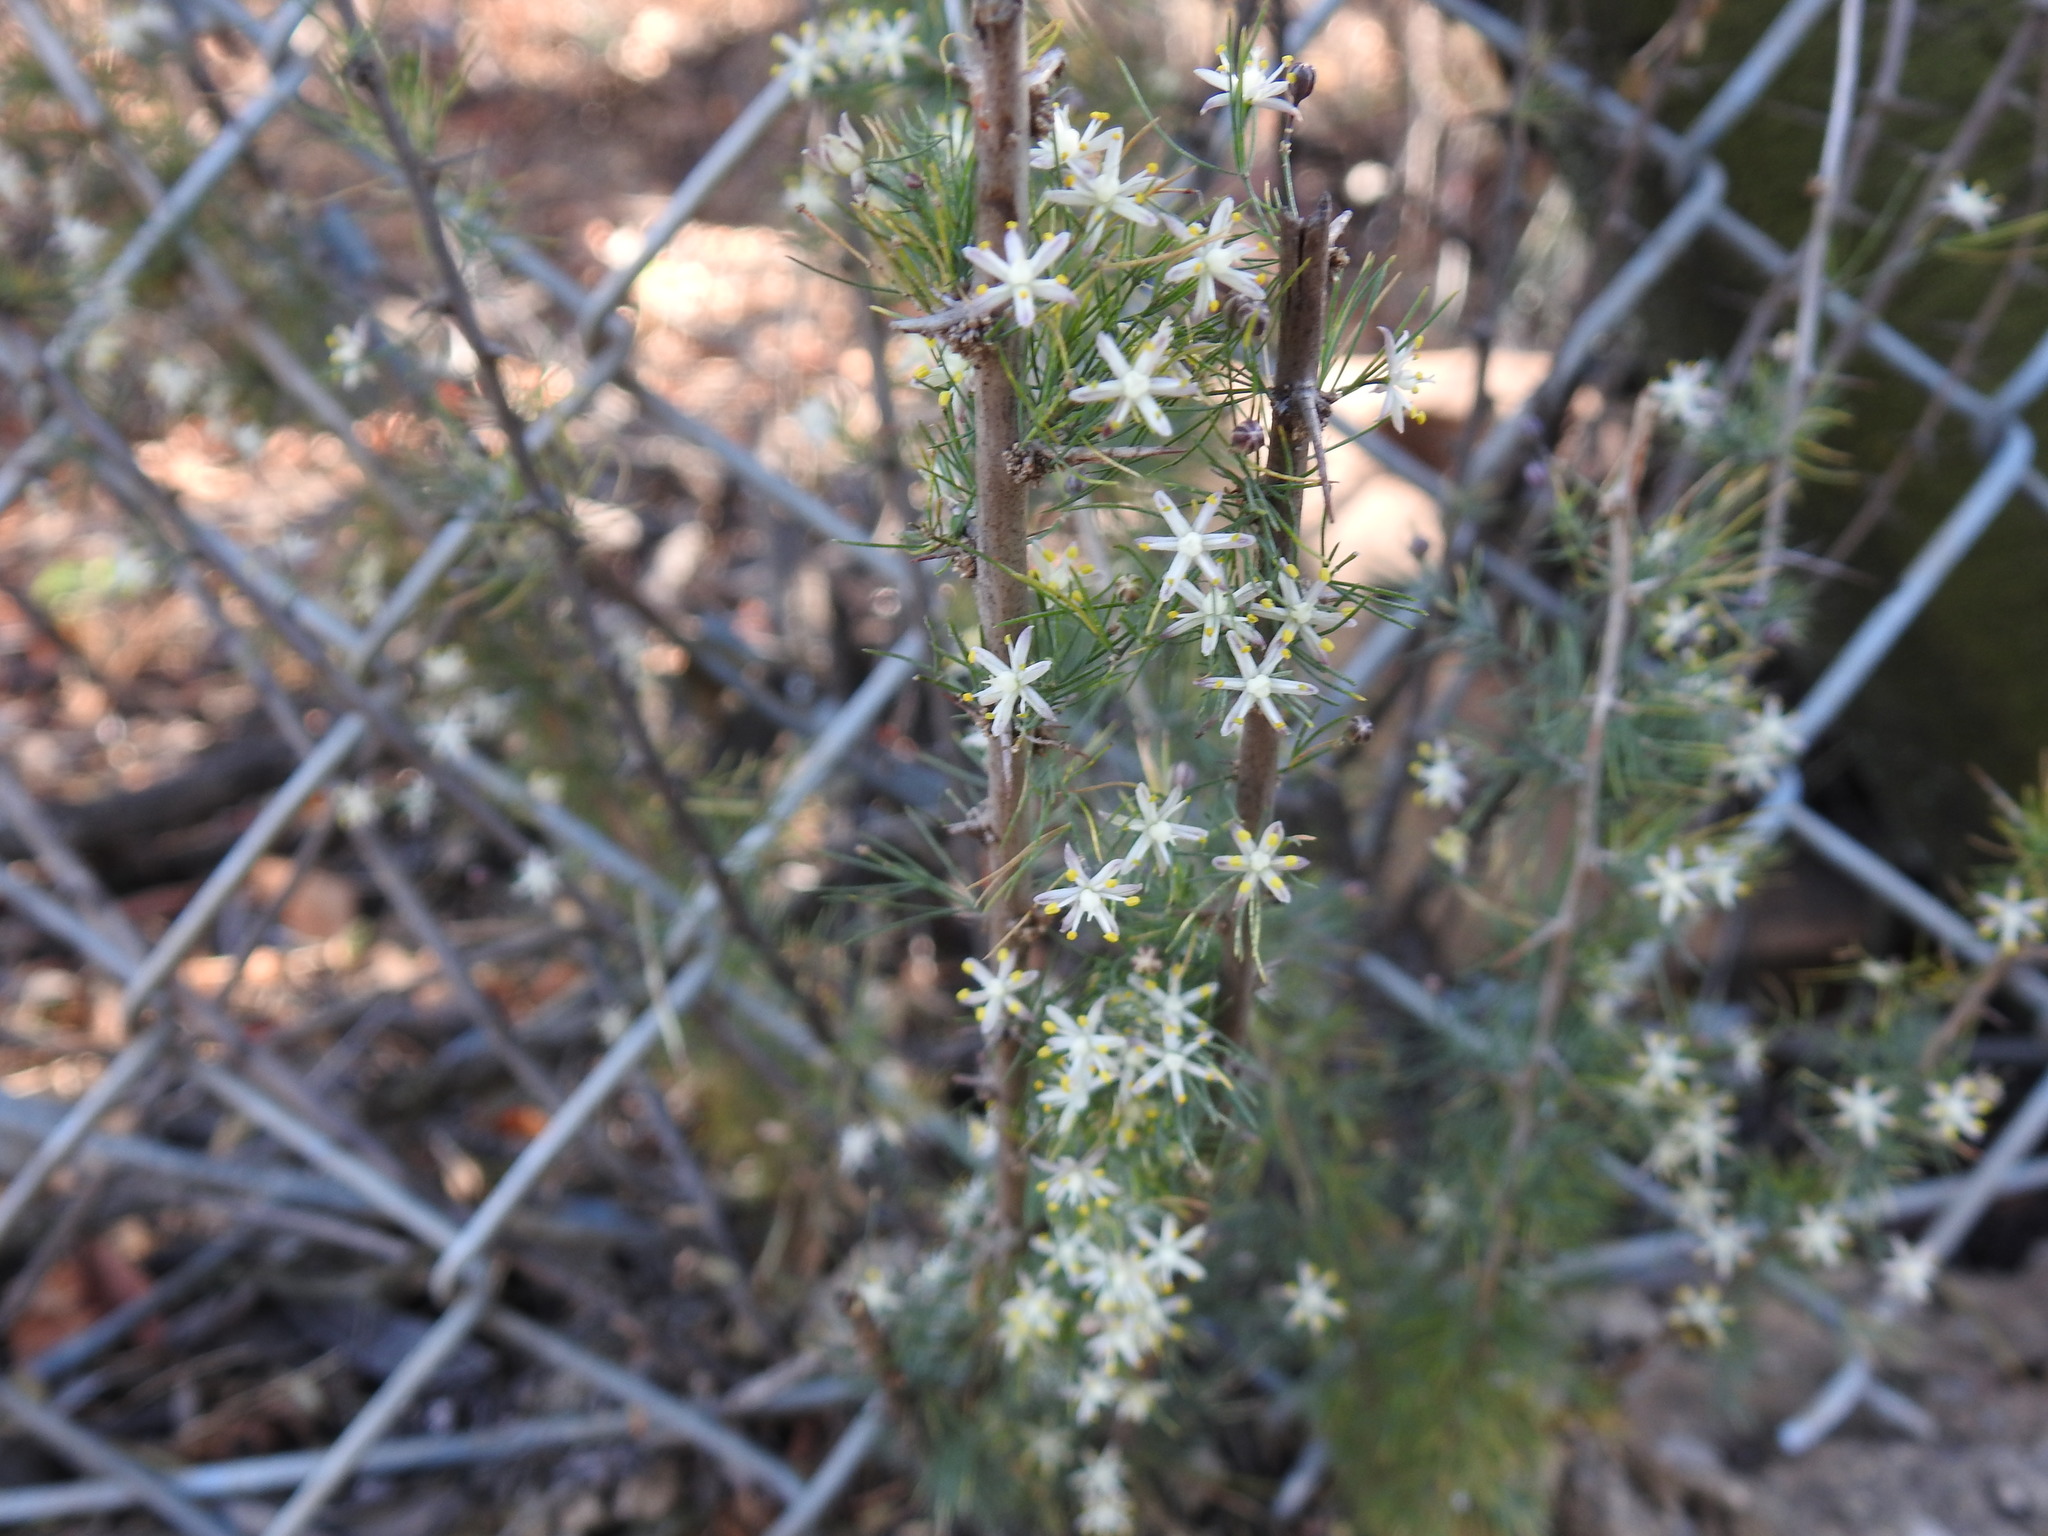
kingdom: Plantae
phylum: Tracheophyta
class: Liliopsida
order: Asparagales
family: Asparagaceae
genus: Asparagus
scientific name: Asparagus suaveolens
